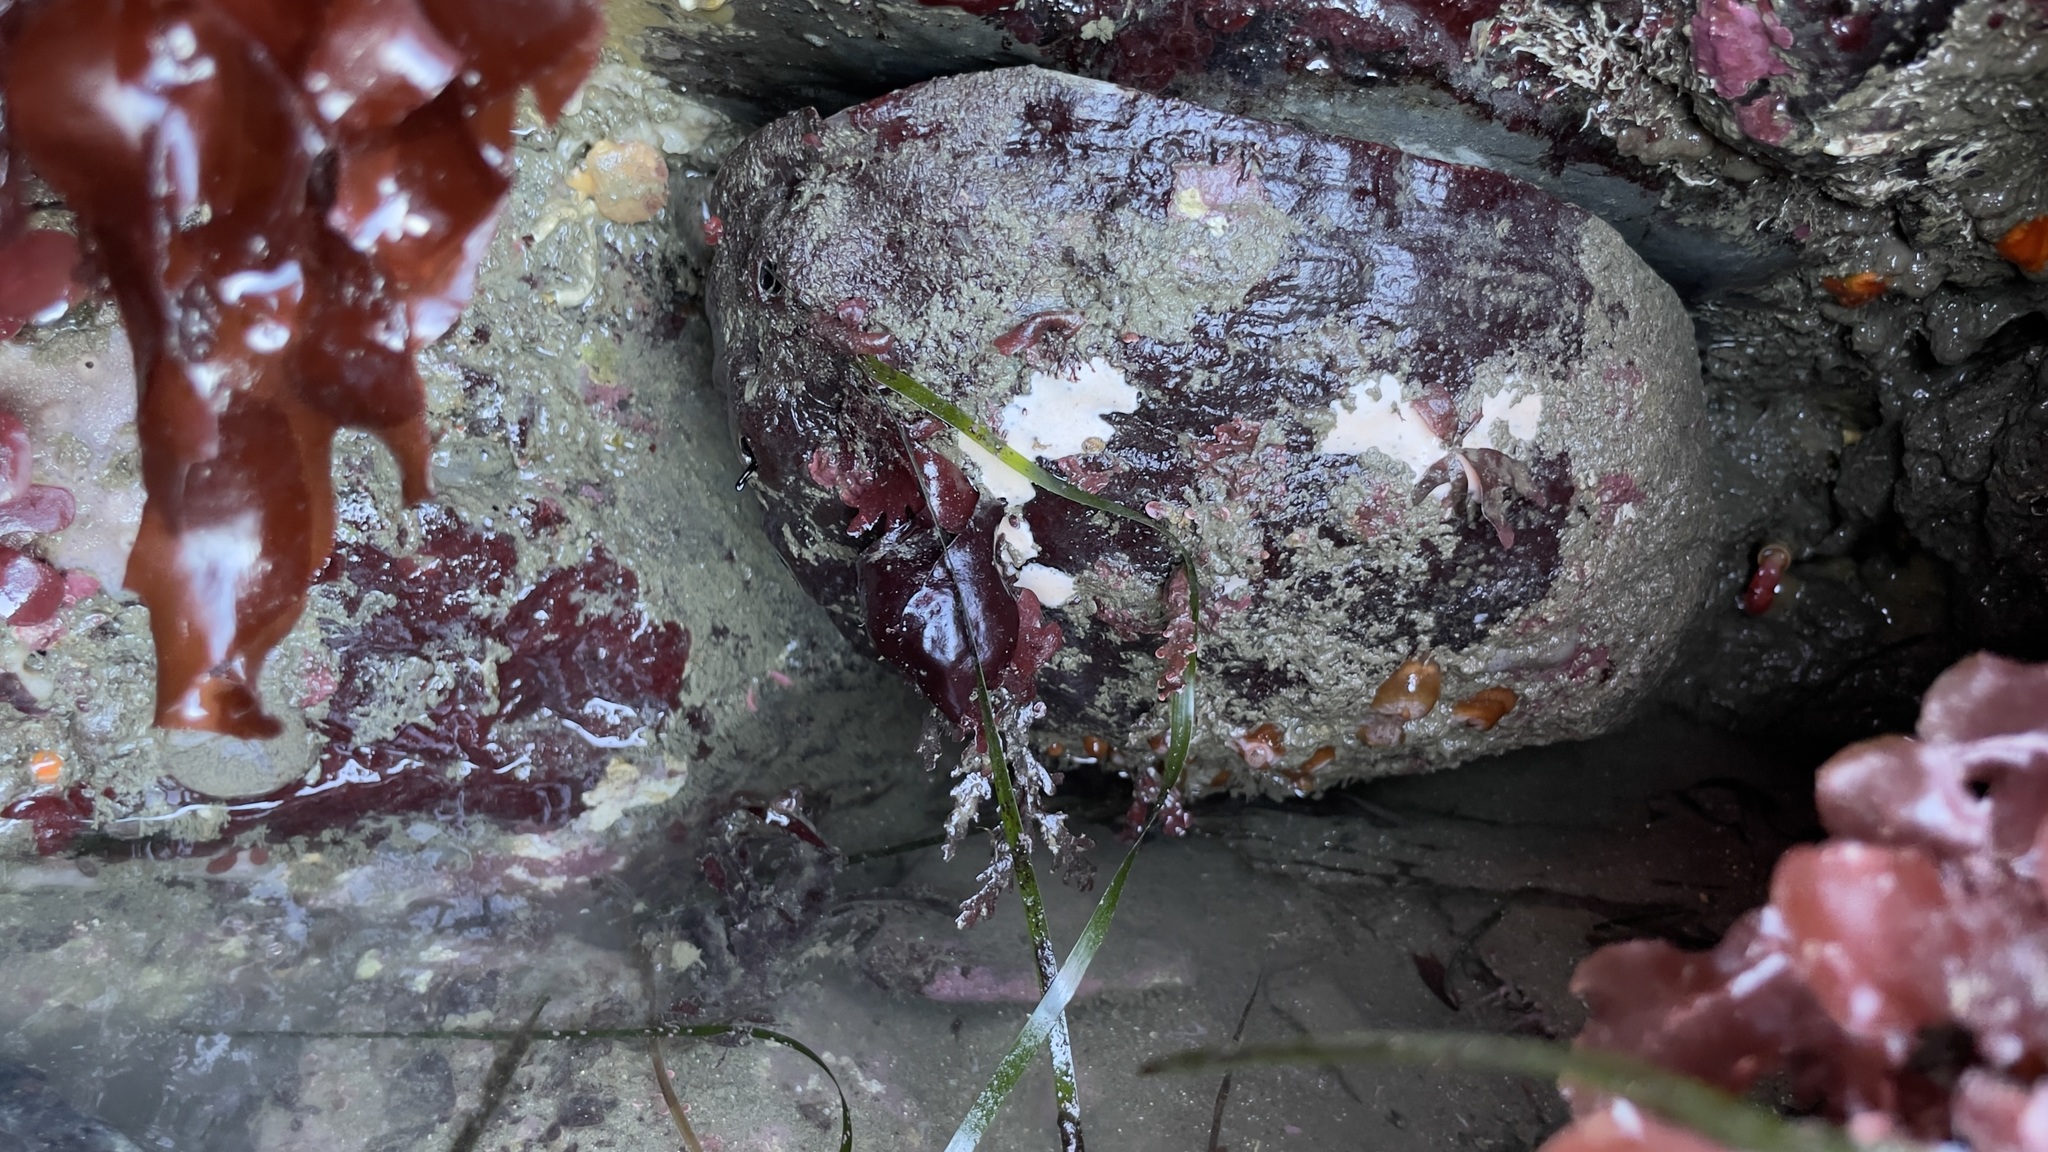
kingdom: Animalia
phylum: Mollusca
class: Gastropoda
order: Lepetellida
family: Haliotidae
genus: Haliotis
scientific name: Haliotis rufescens
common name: Red abalone
